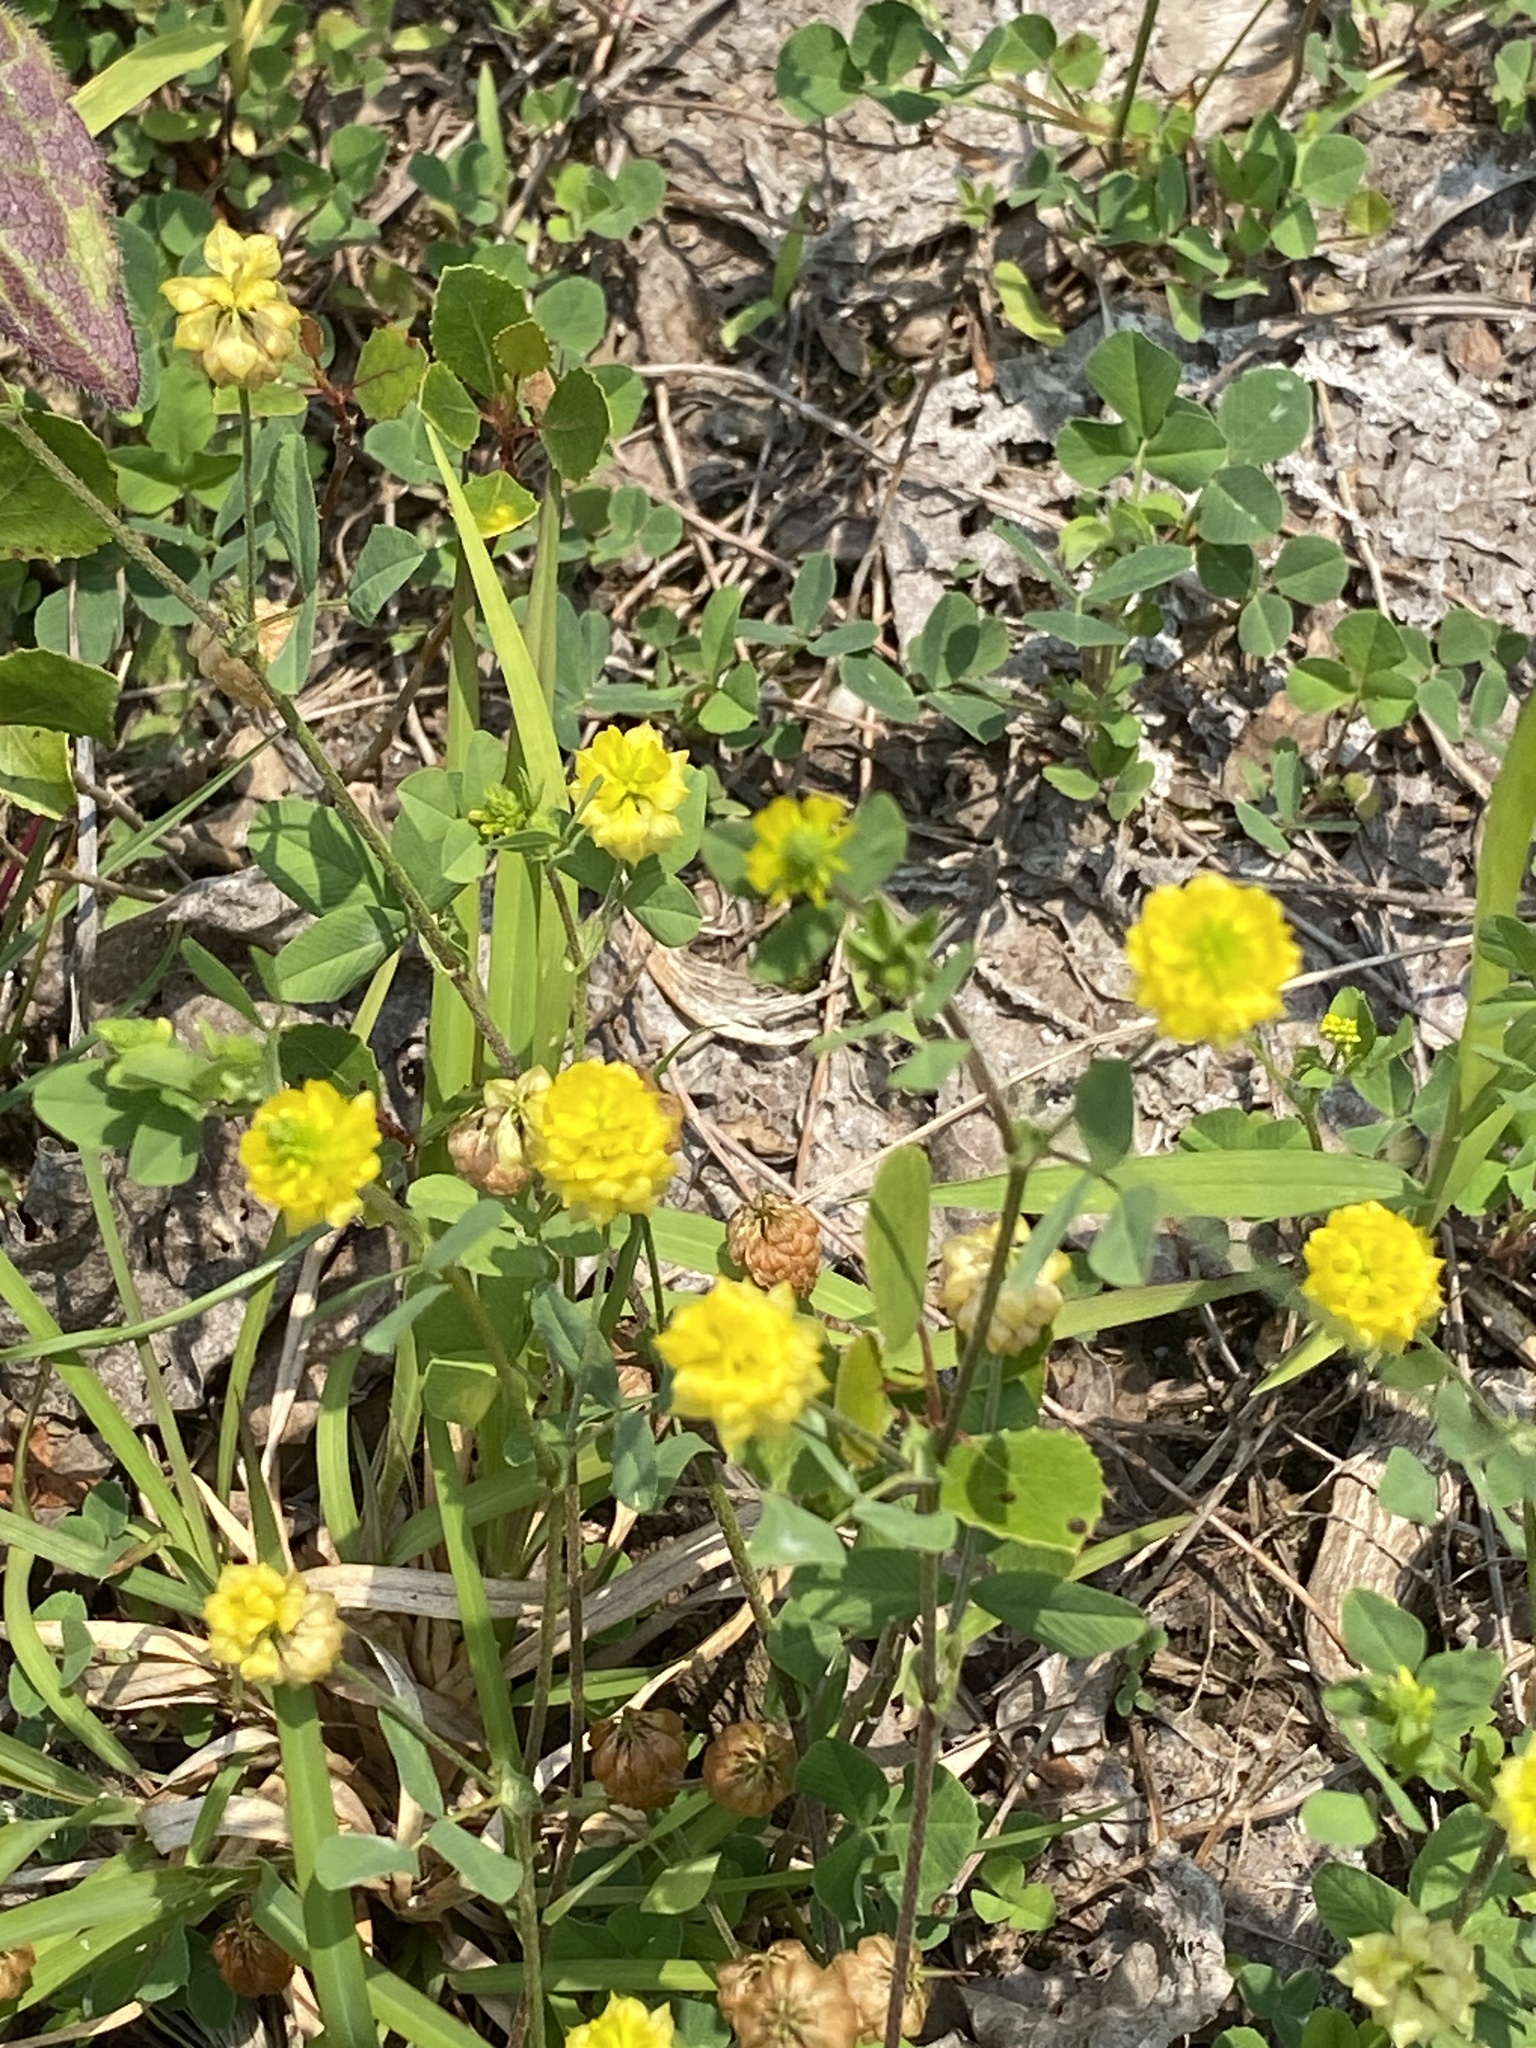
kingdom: Plantae
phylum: Tracheophyta
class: Magnoliopsida
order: Fabales
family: Fabaceae
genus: Trifolium
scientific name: Trifolium campestre
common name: Field clover
